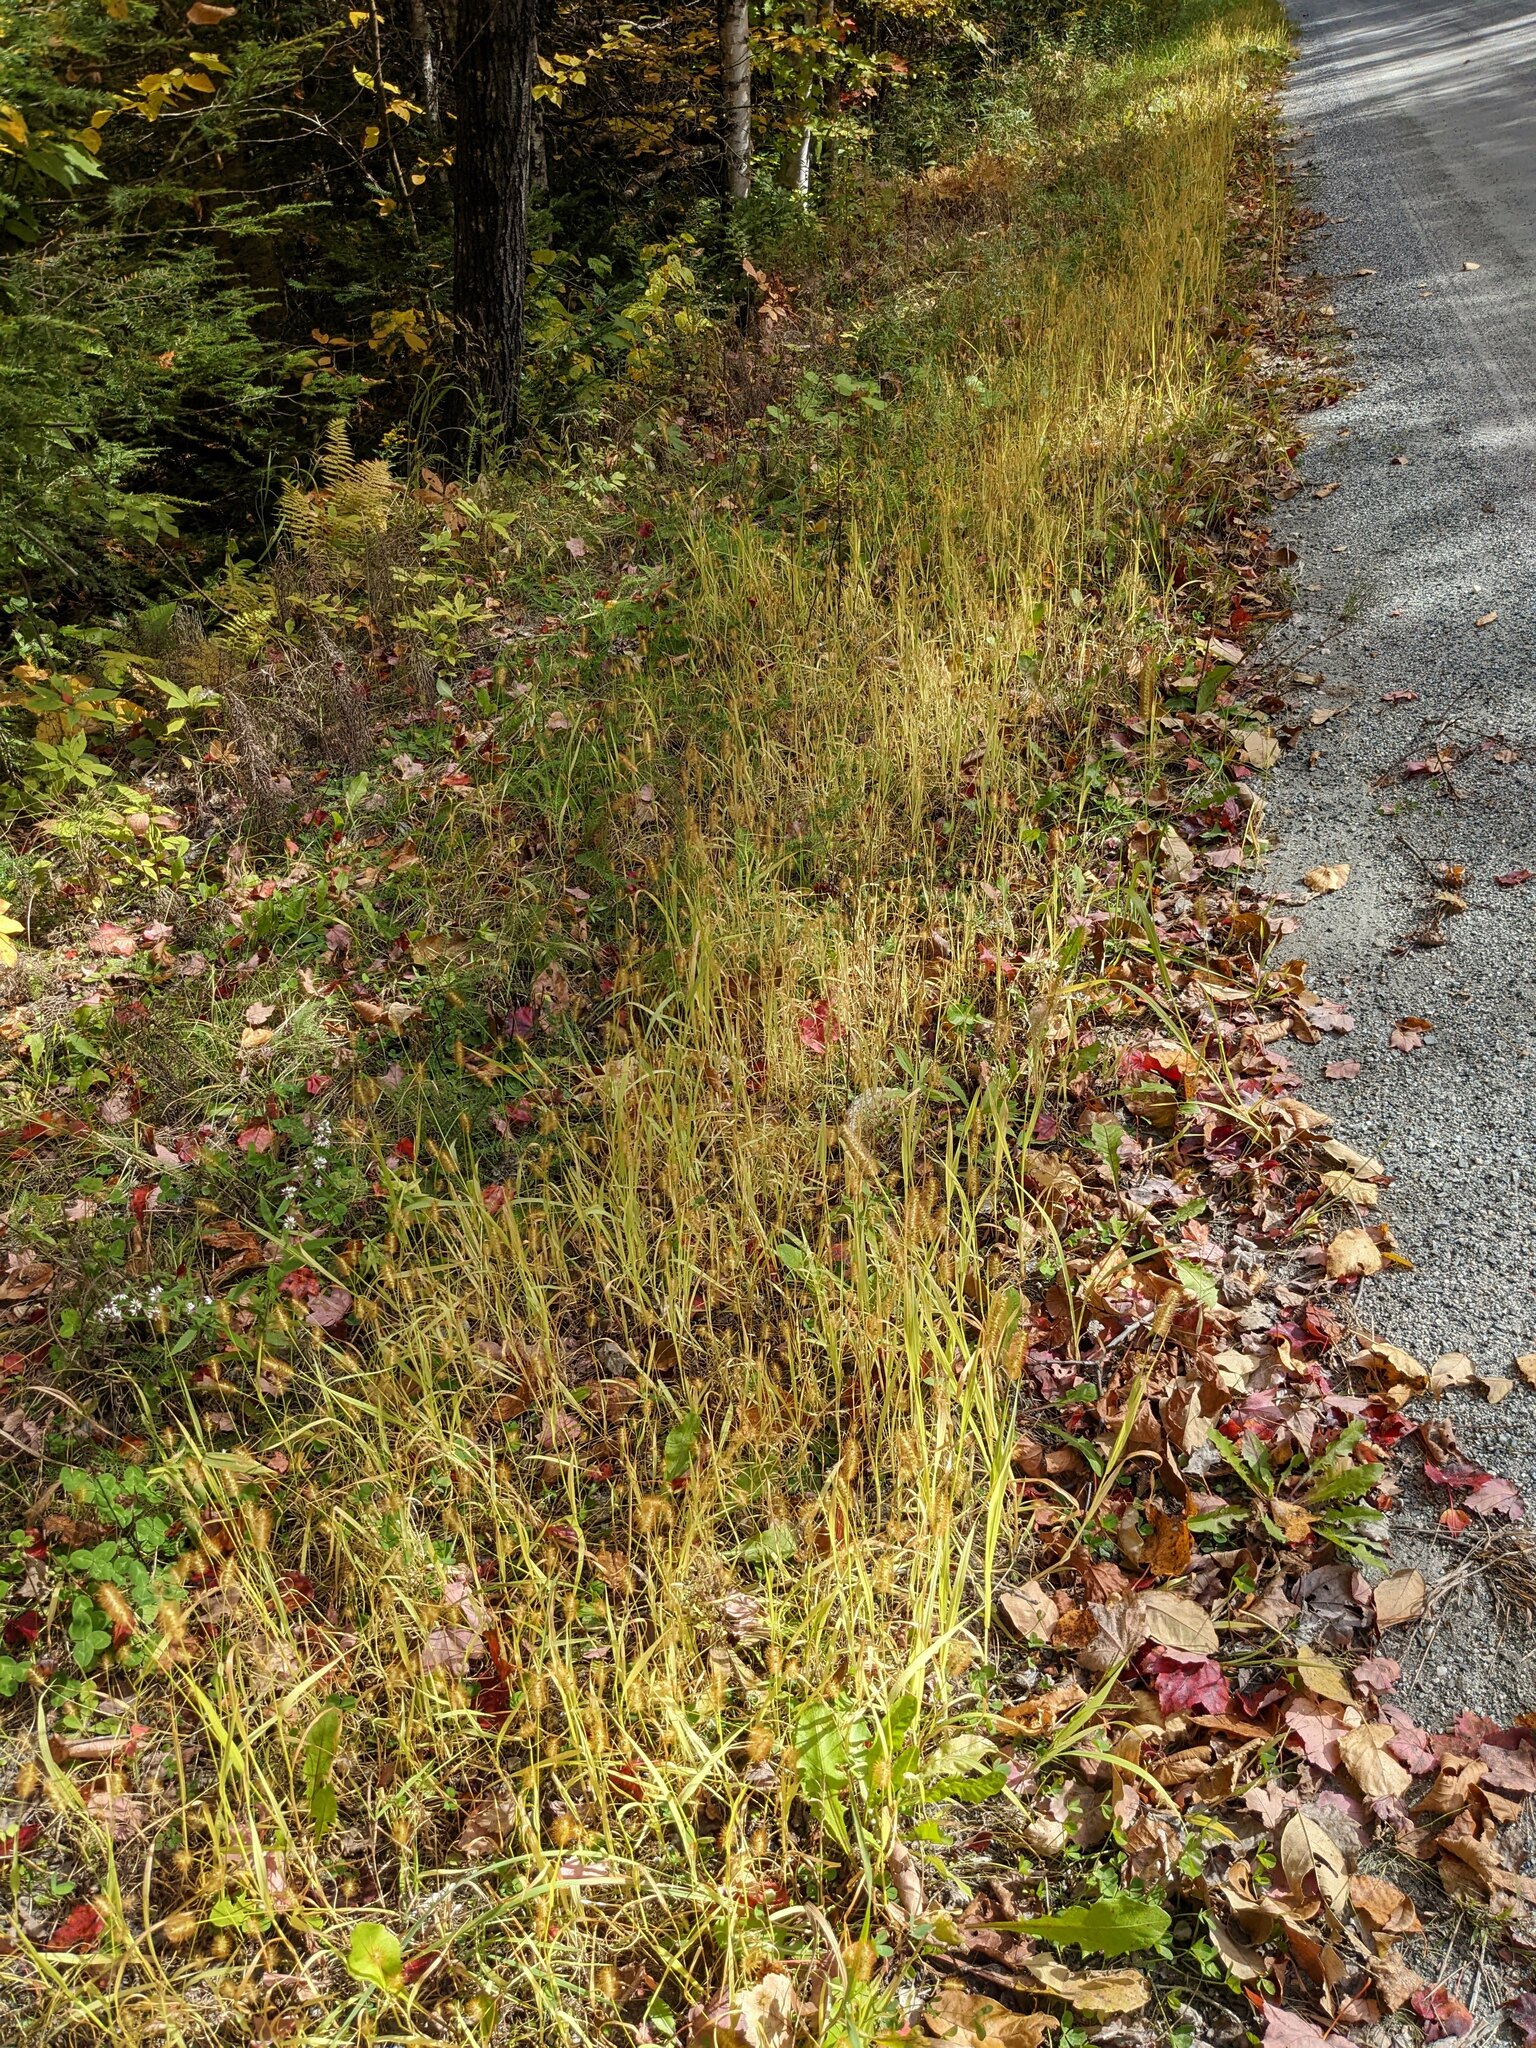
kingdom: Plantae
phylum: Tracheophyta
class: Liliopsida
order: Poales
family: Poaceae
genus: Setaria
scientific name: Setaria pumila
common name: Yellow bristle-grass
